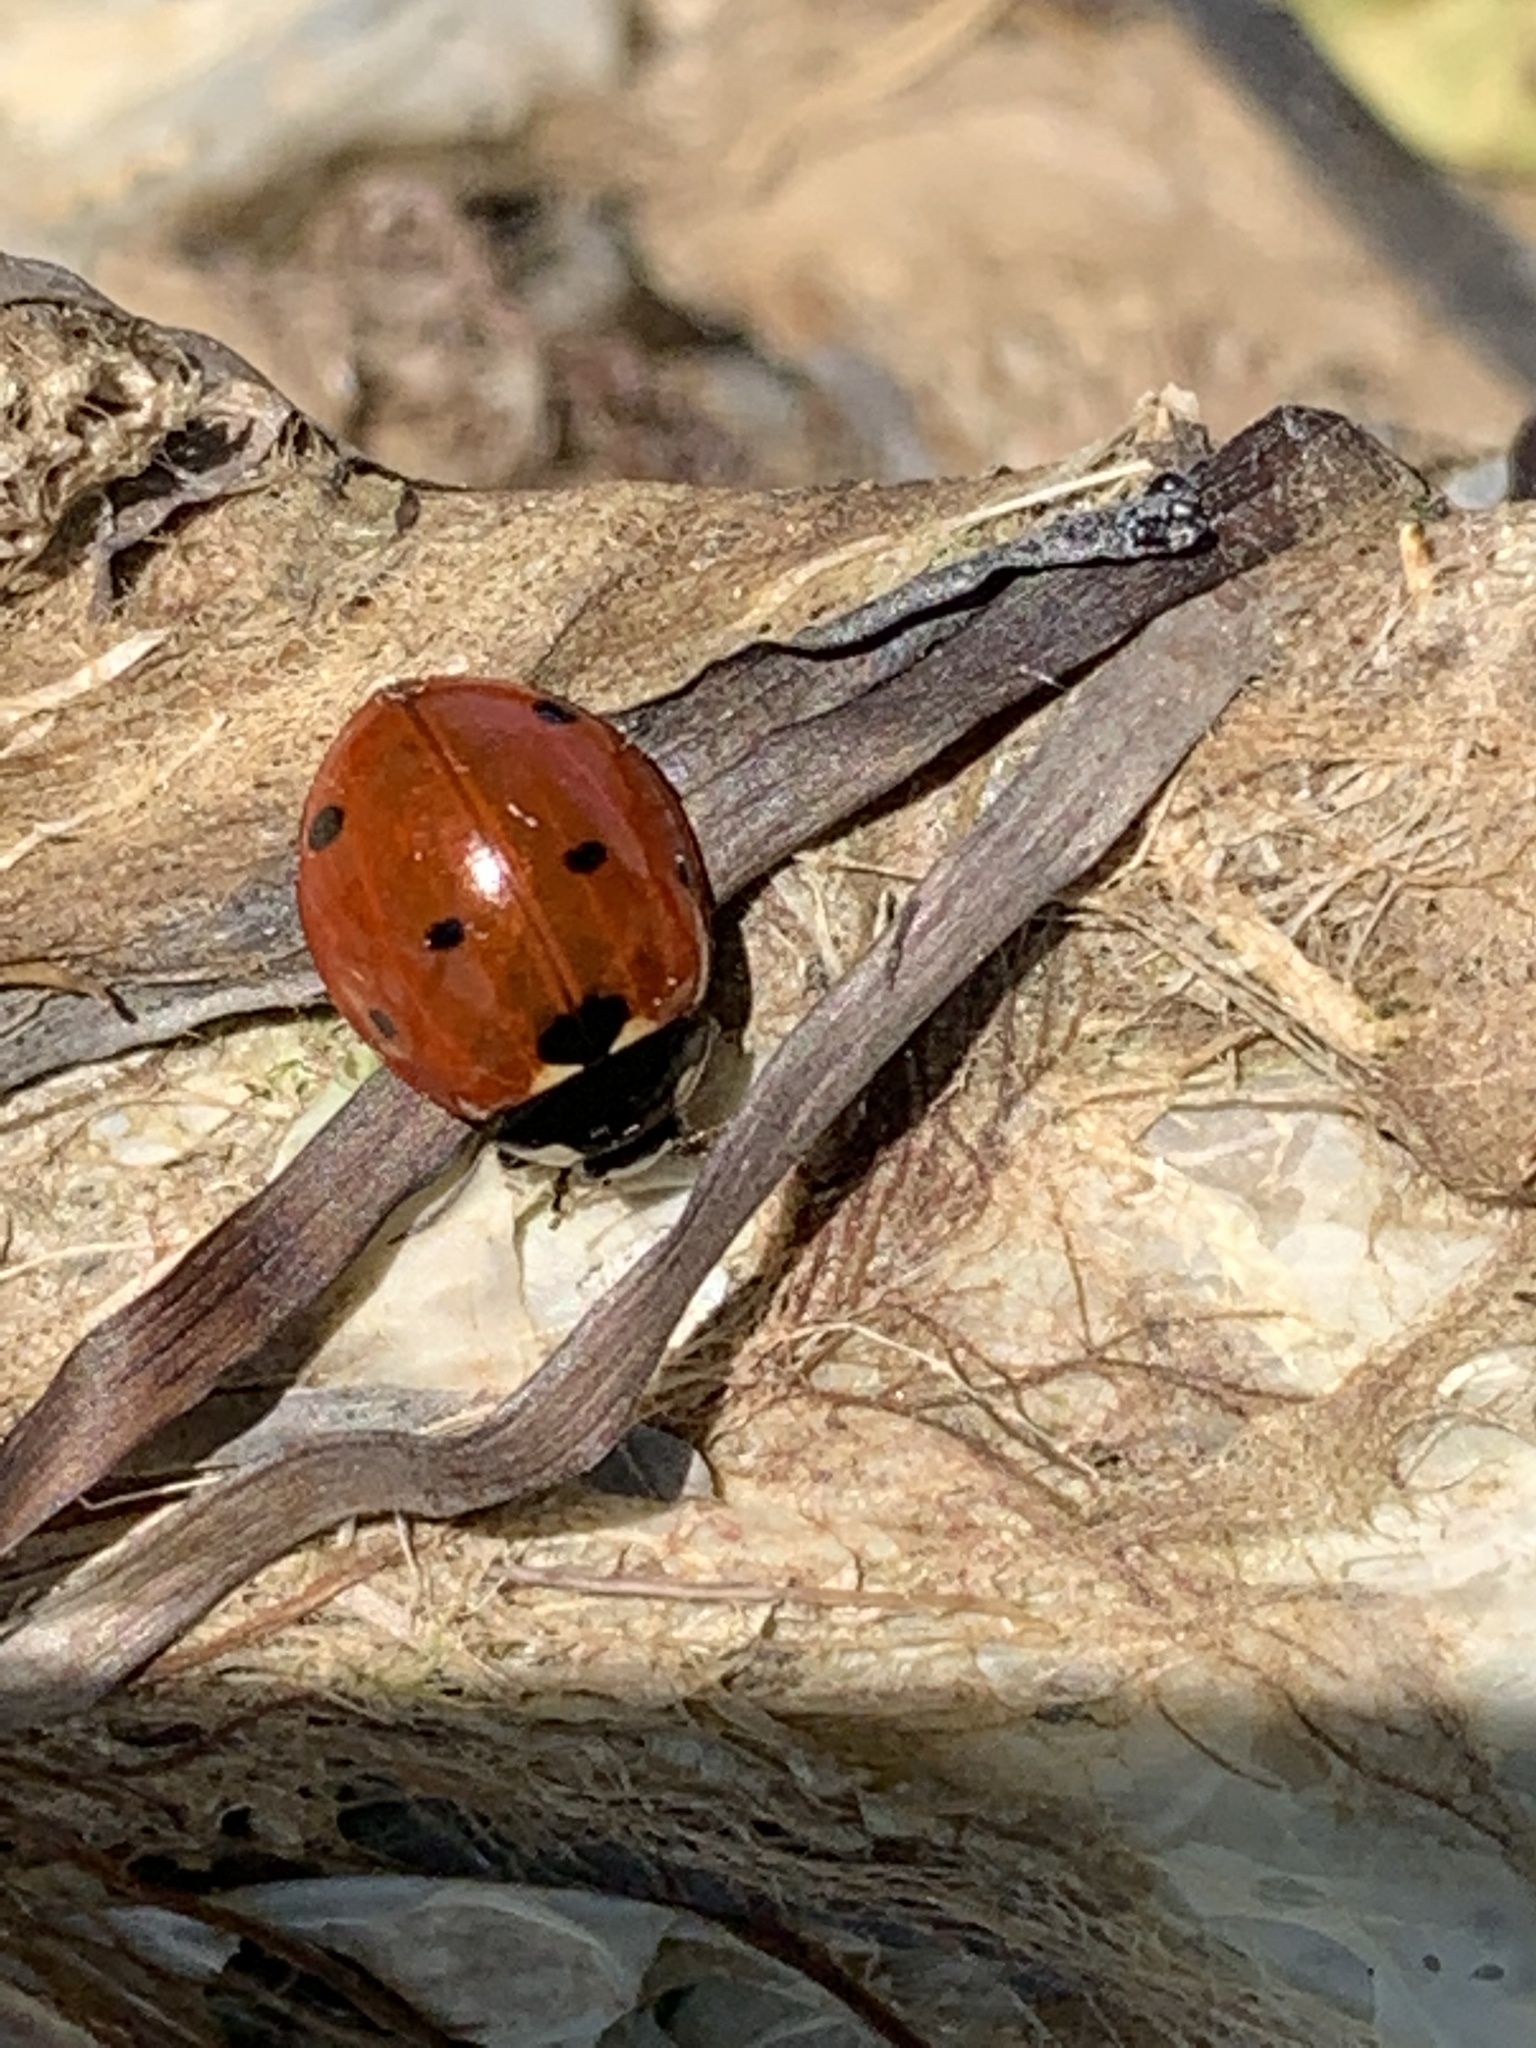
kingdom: Animalia
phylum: Arthropoda
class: Insecta
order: Coleoptera
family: Coccinellidae
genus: Coccinella
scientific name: Coccinella septempunctata
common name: Sevenspotted lady beetle
